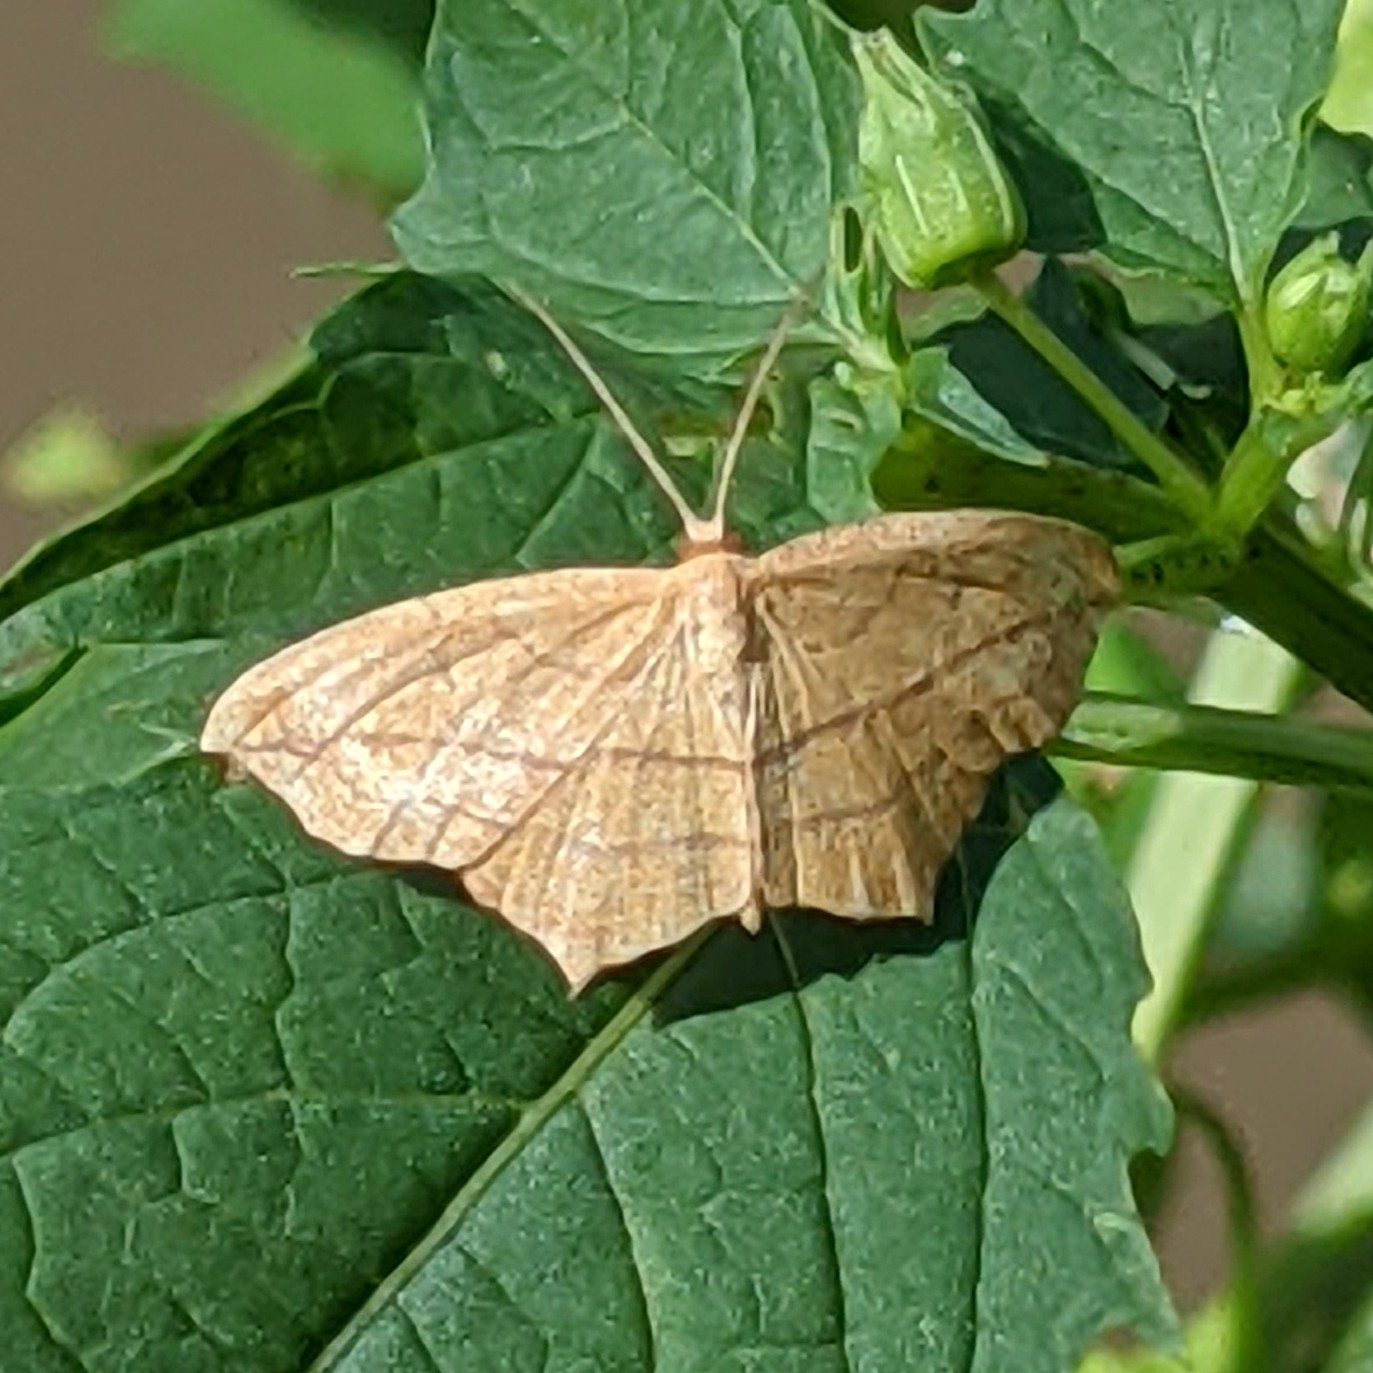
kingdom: Animalia
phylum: Arthropoda
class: Insecta
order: Lepidoptera
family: Geometridae
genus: Timandra
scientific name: Timandra amaturaria
